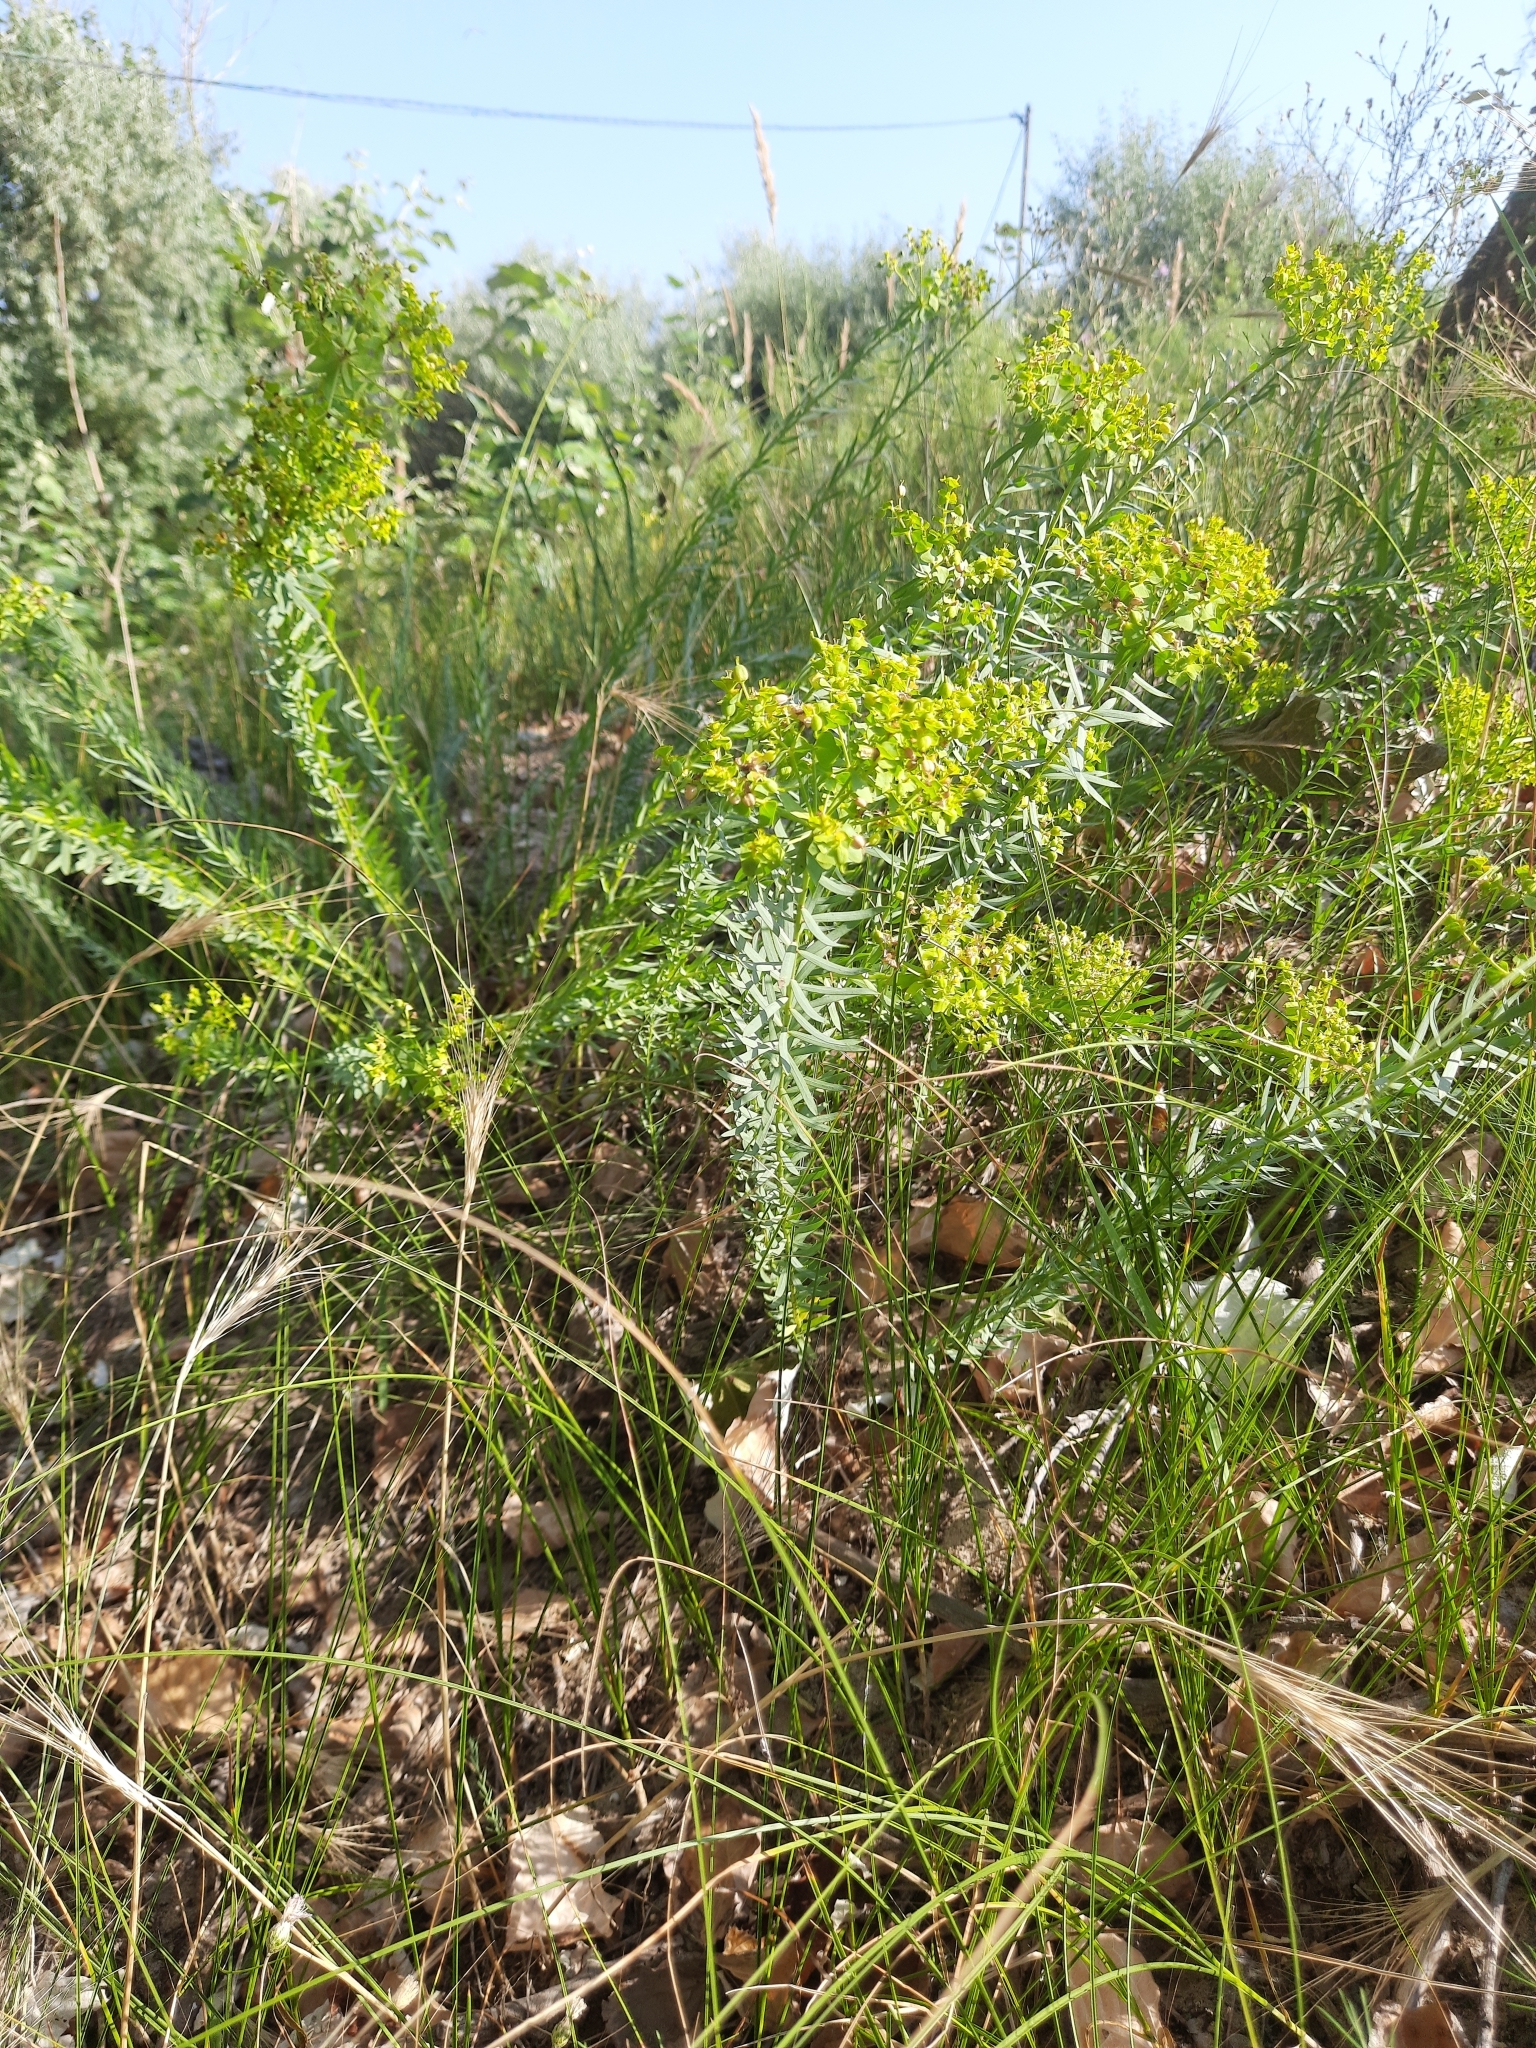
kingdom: Plantae
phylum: Tracheophyta
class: Magnoliopsida
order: Malpighiales
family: Euphorbiaceae
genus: Euphorbia
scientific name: Euphorbia seguieriana
